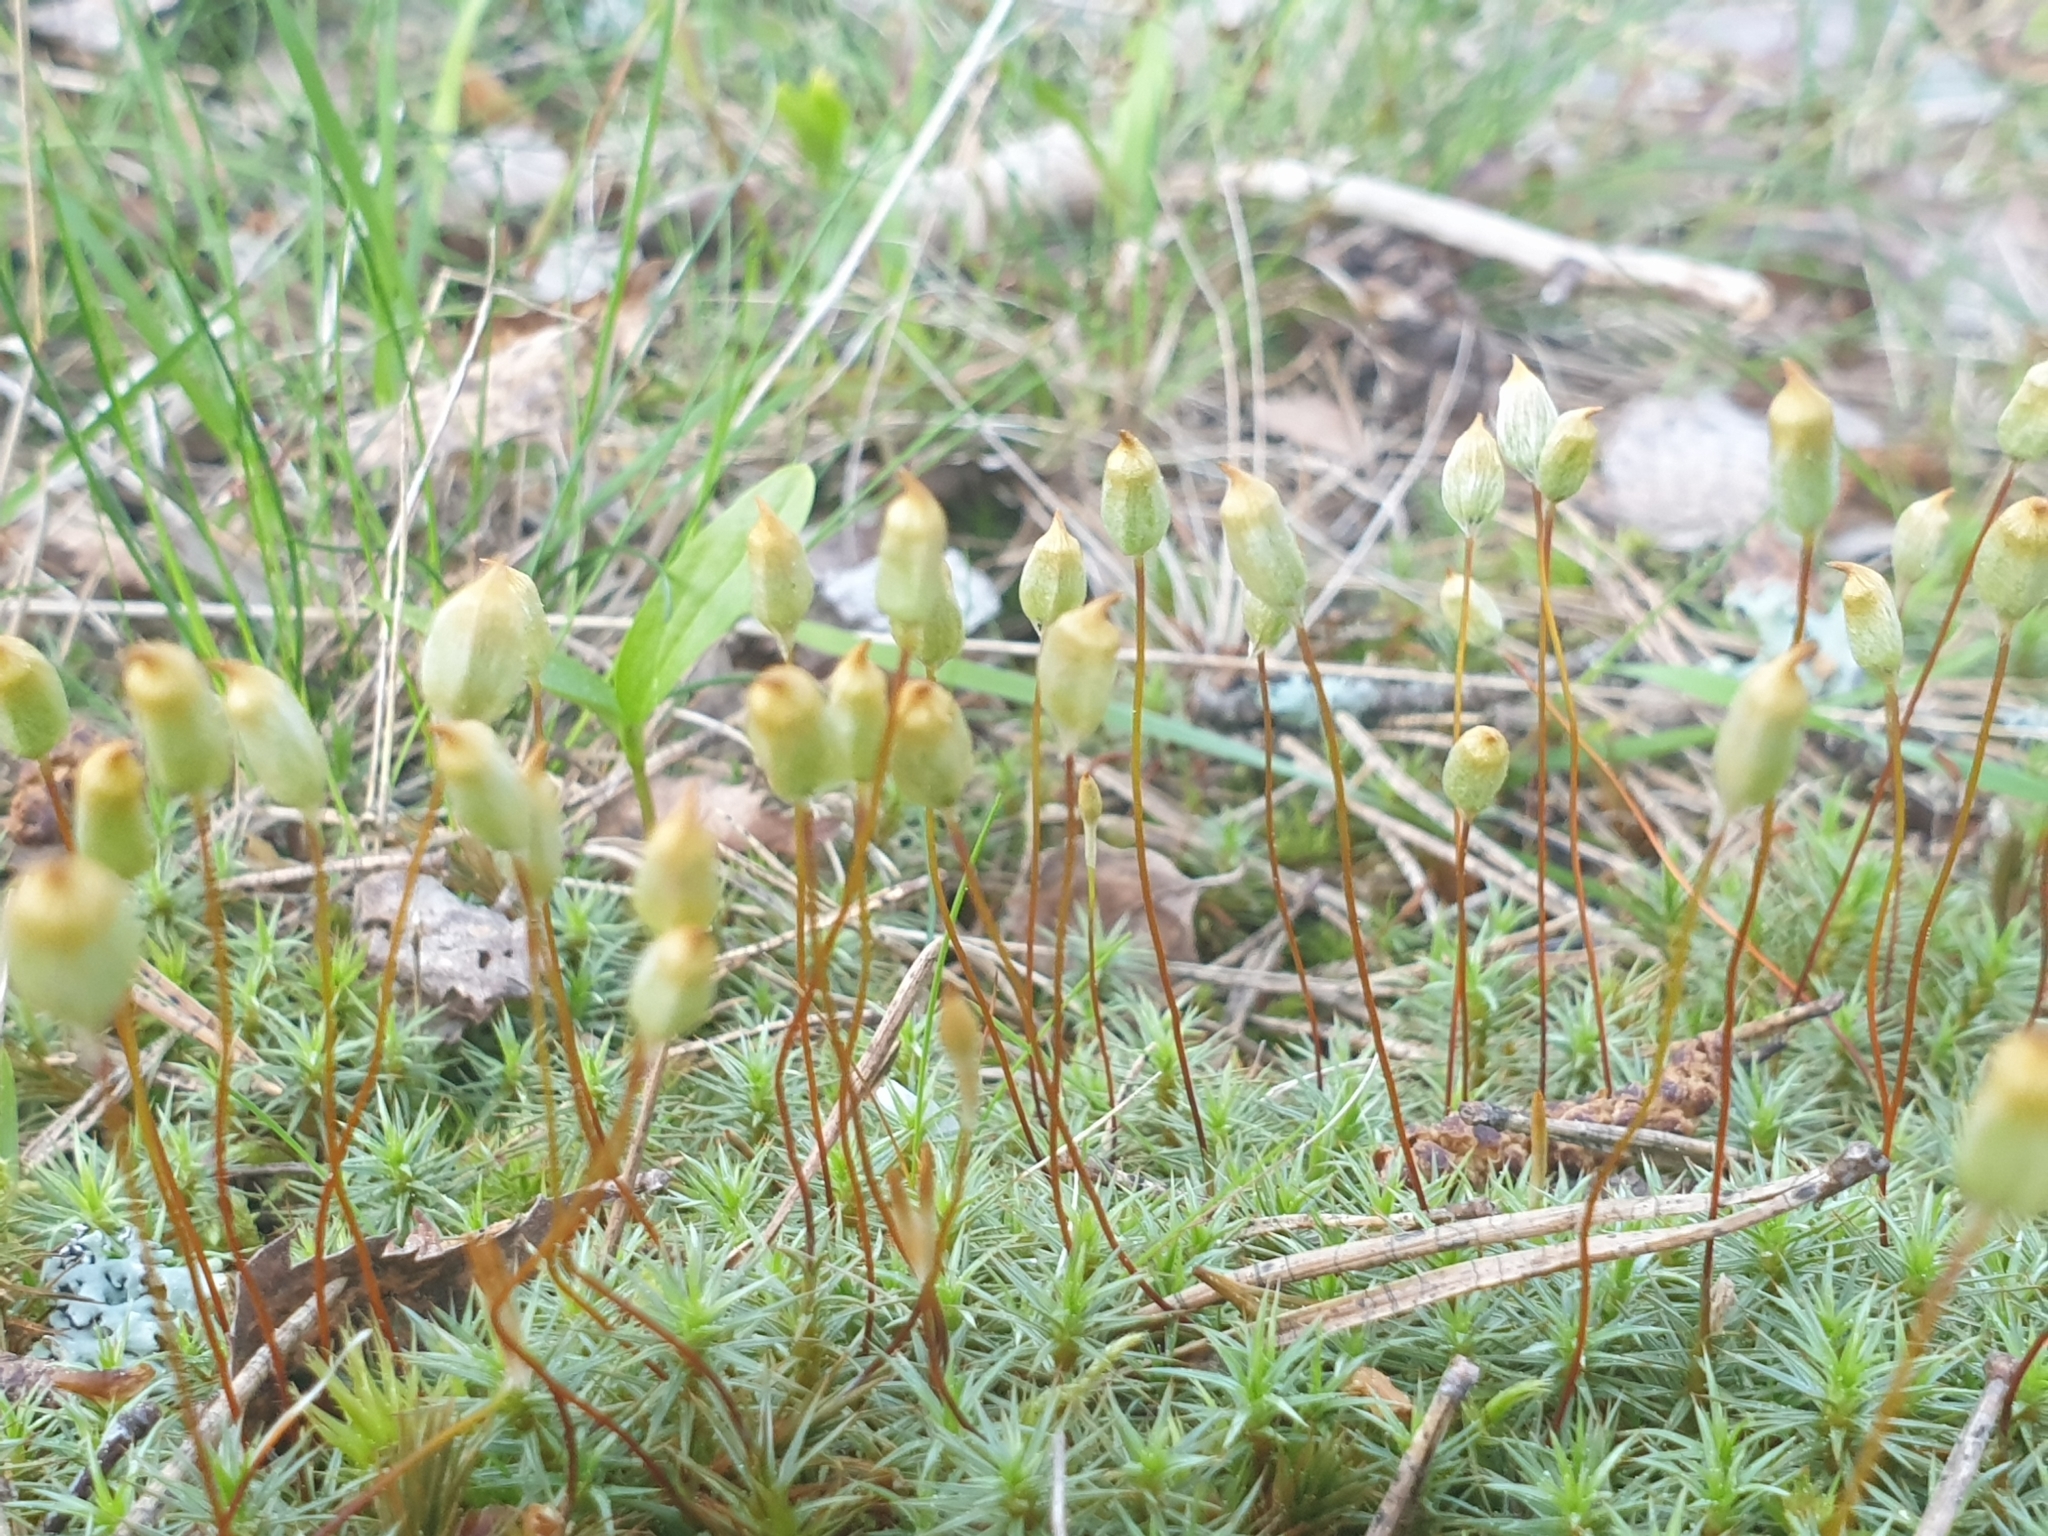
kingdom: Plantae
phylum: Bryophyta
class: Polytrichopsida
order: Polytrichales
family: Polytrichaceae
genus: Polytrichum
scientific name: Polytrichum juniperinum
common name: Juniper haircap moss
